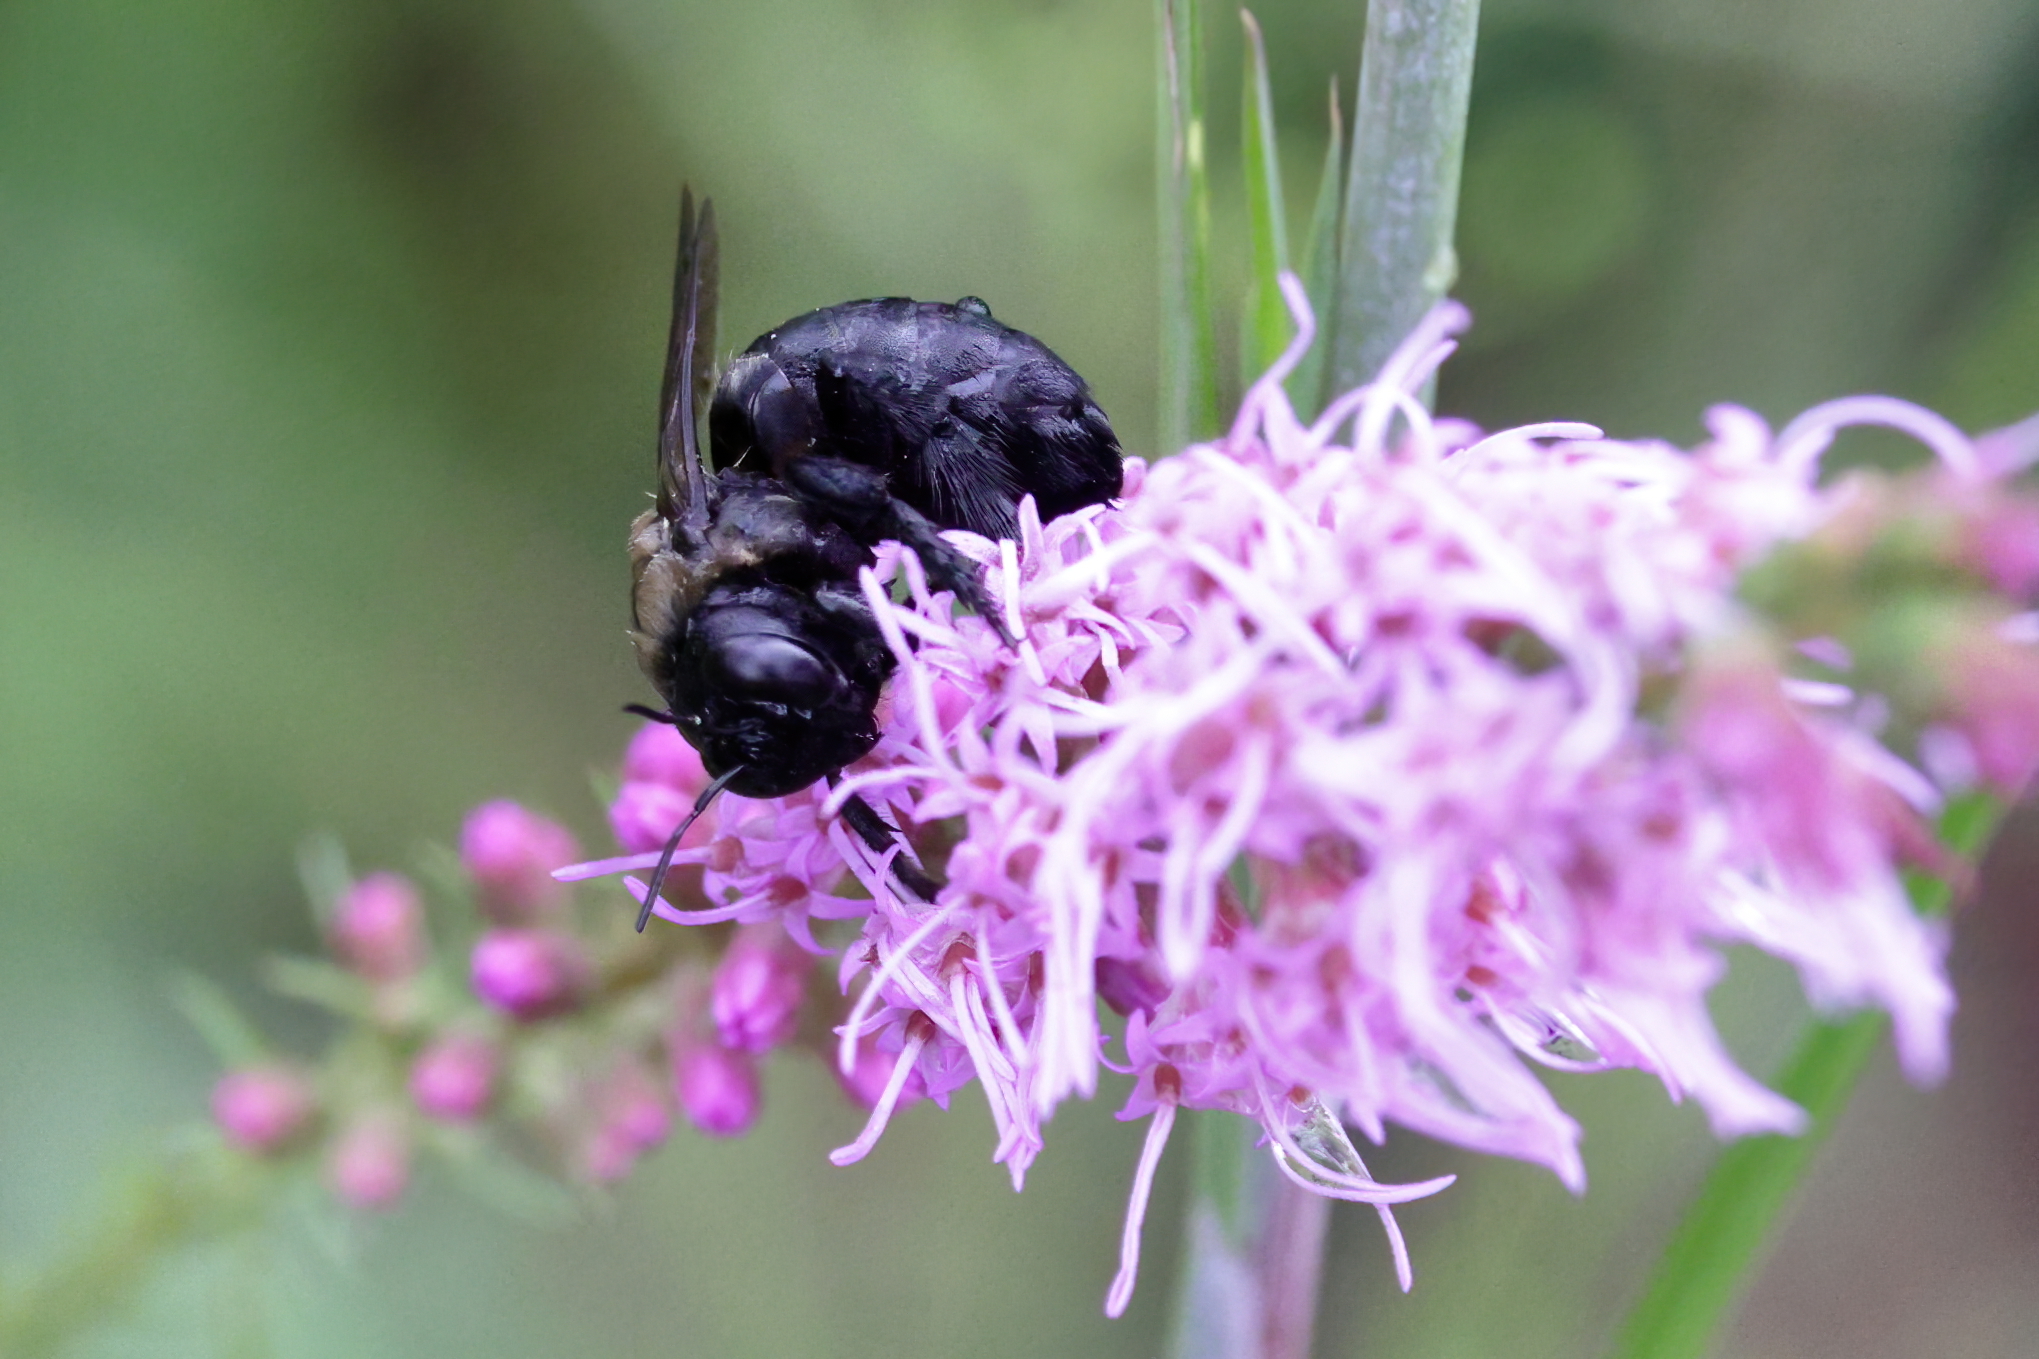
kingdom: Animalia
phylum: Arthropoda
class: Insecta
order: Hymenoptera
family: Apidae
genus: Xylocopa
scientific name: Xylocopa virginica
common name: Carpenter bee
